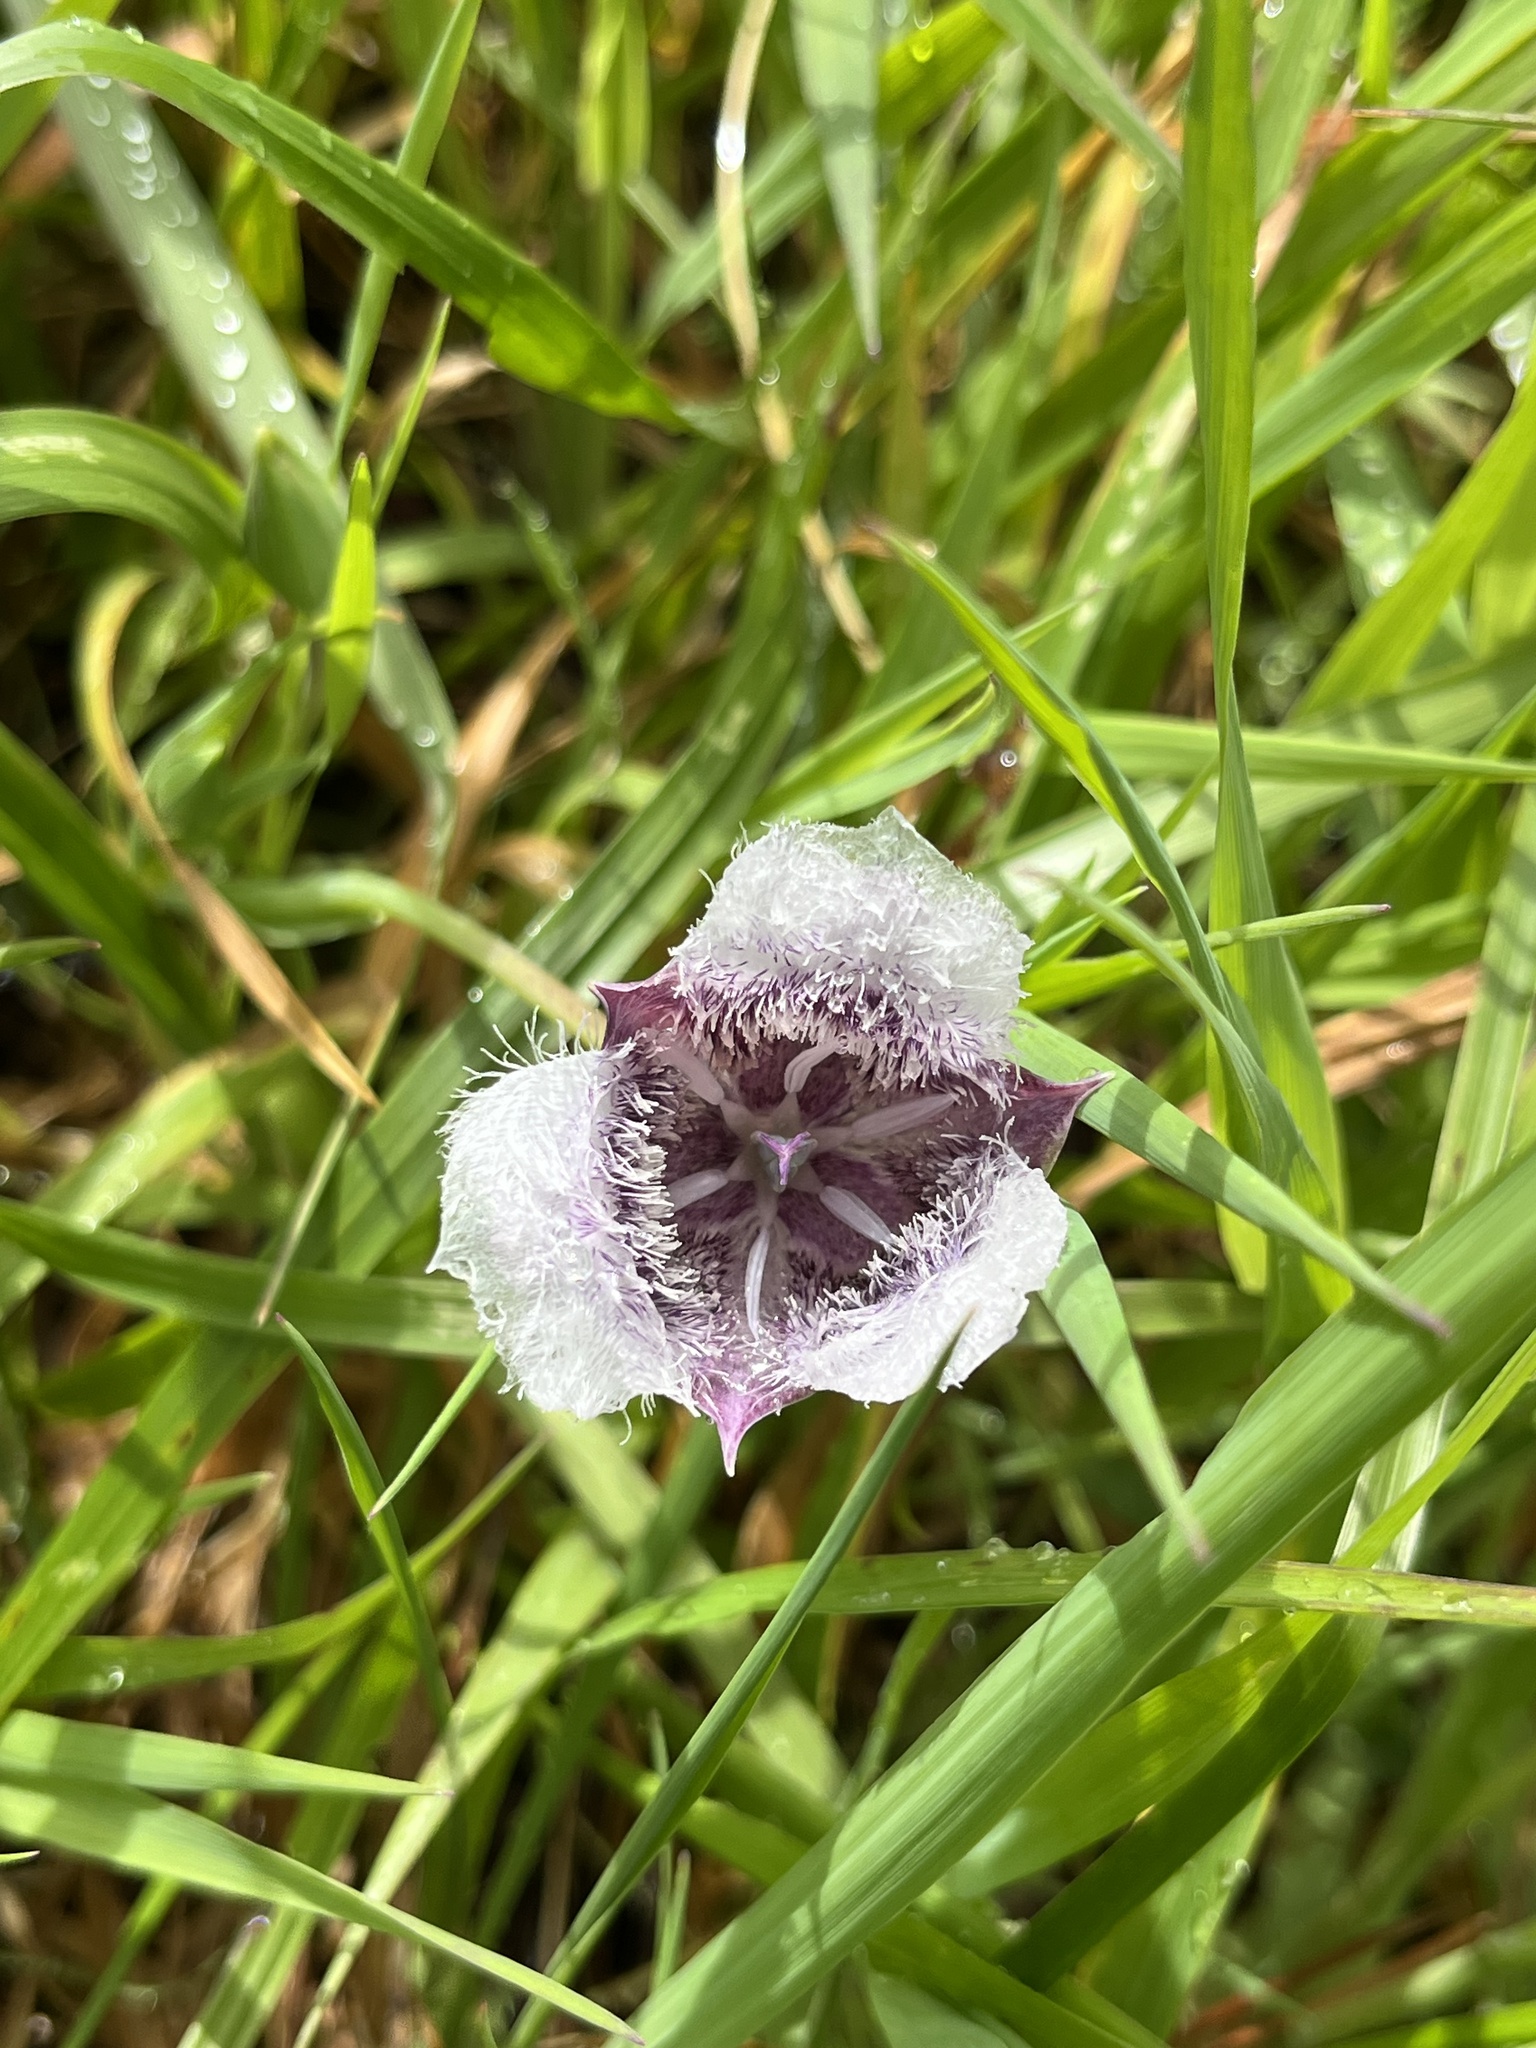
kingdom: Plantae
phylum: Tracheophyta
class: Liliopsida
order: Liliales
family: Liliaceae
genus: Calochortus
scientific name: Calochortus tolmiei
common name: Pussy-ears
